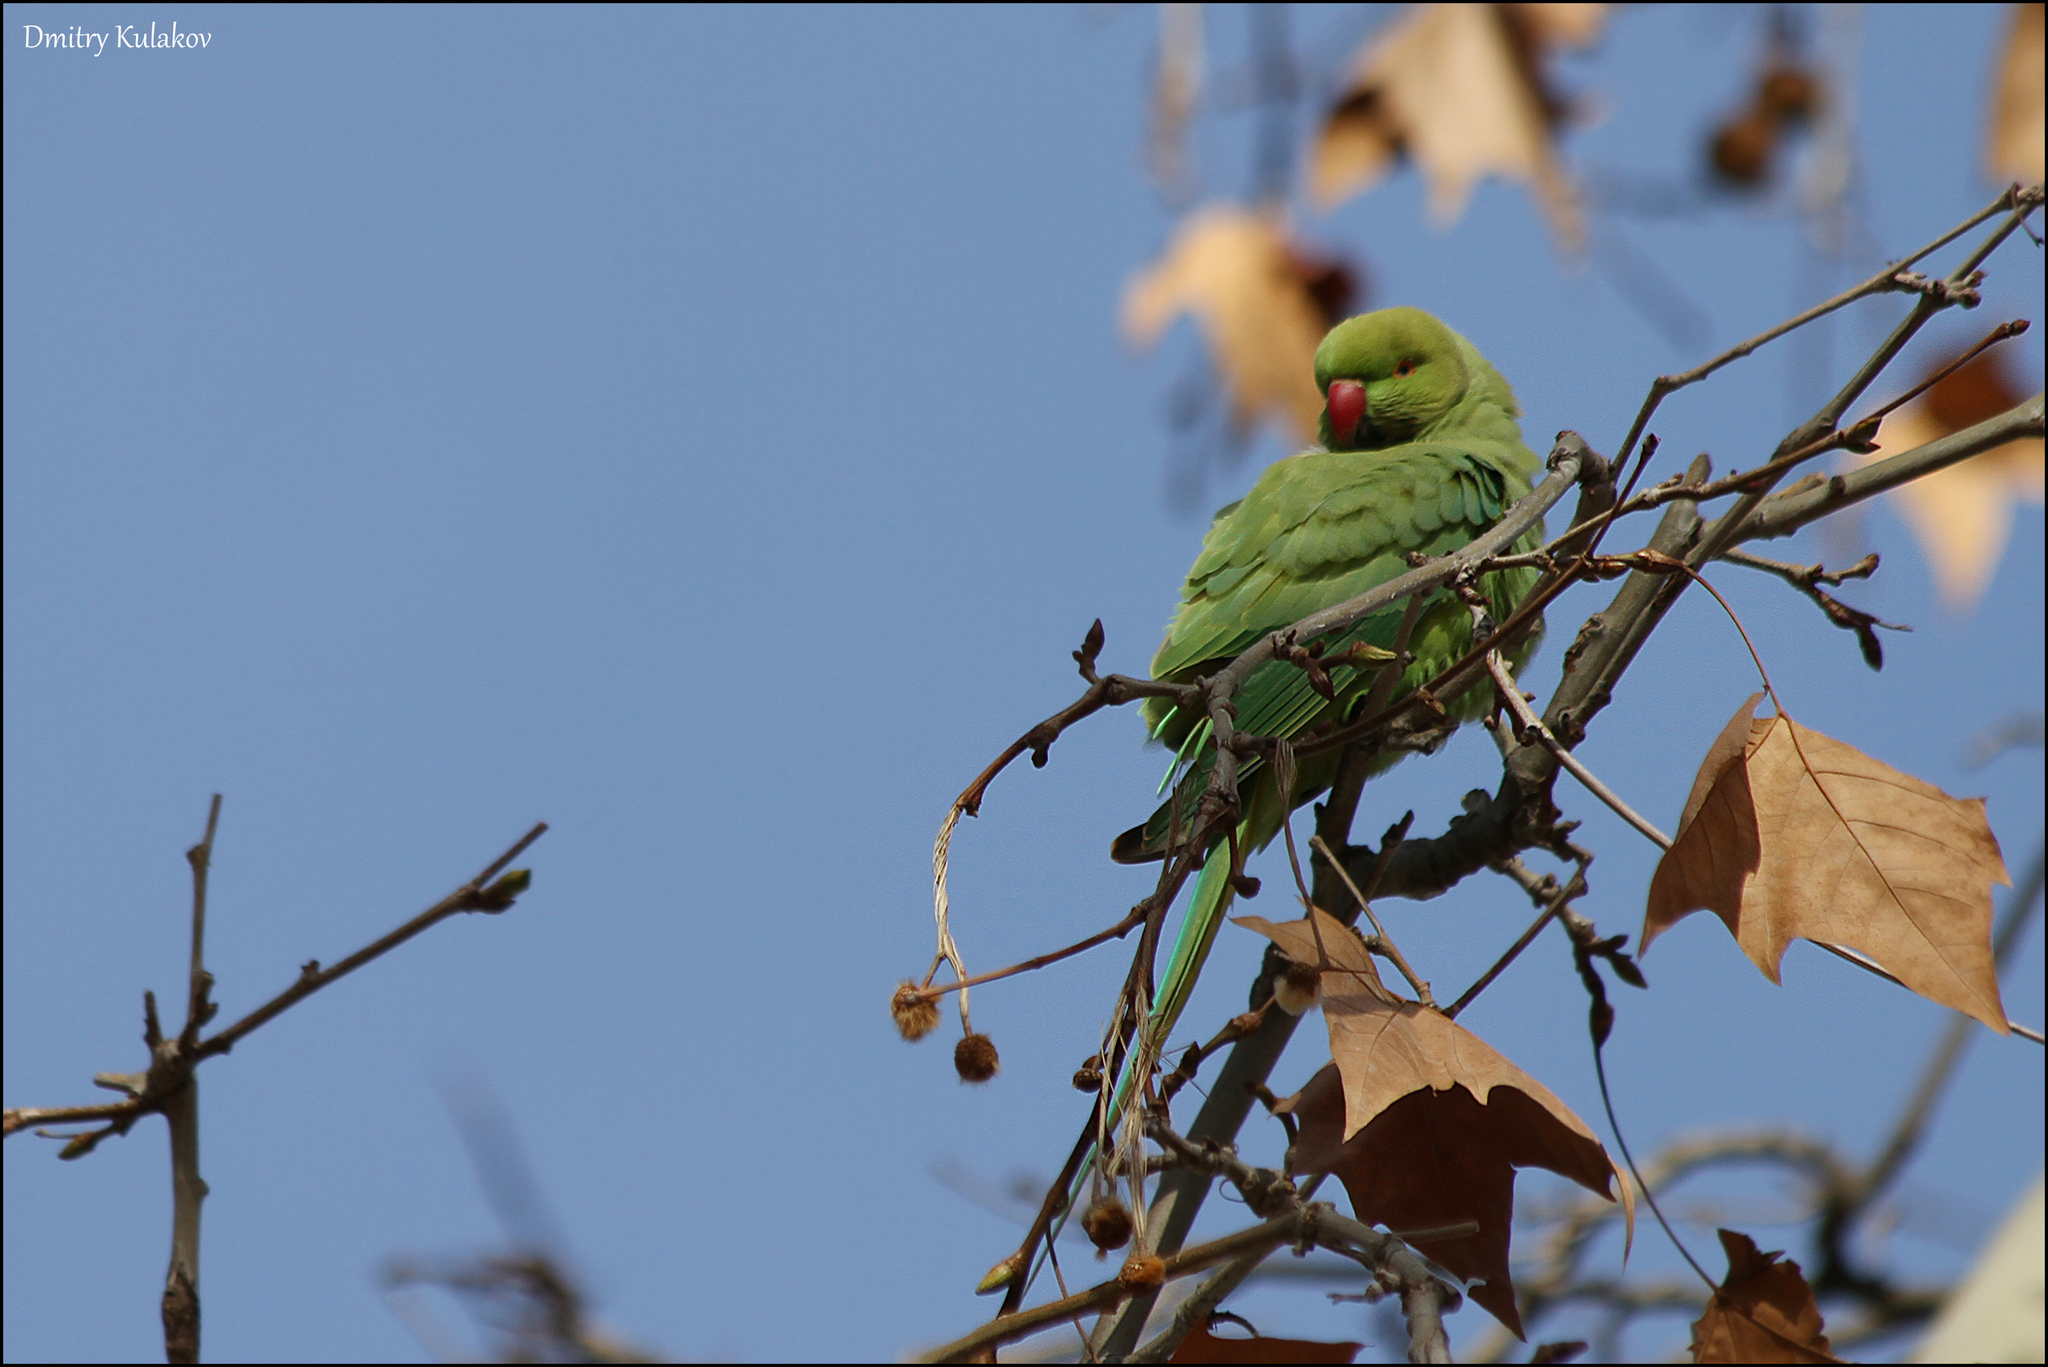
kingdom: Animalia
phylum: Chordata
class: Aves
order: Psittaciformes
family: Psittacidae
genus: Psittacula
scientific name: Psittacula krameri
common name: Rose-ringed parakeet
